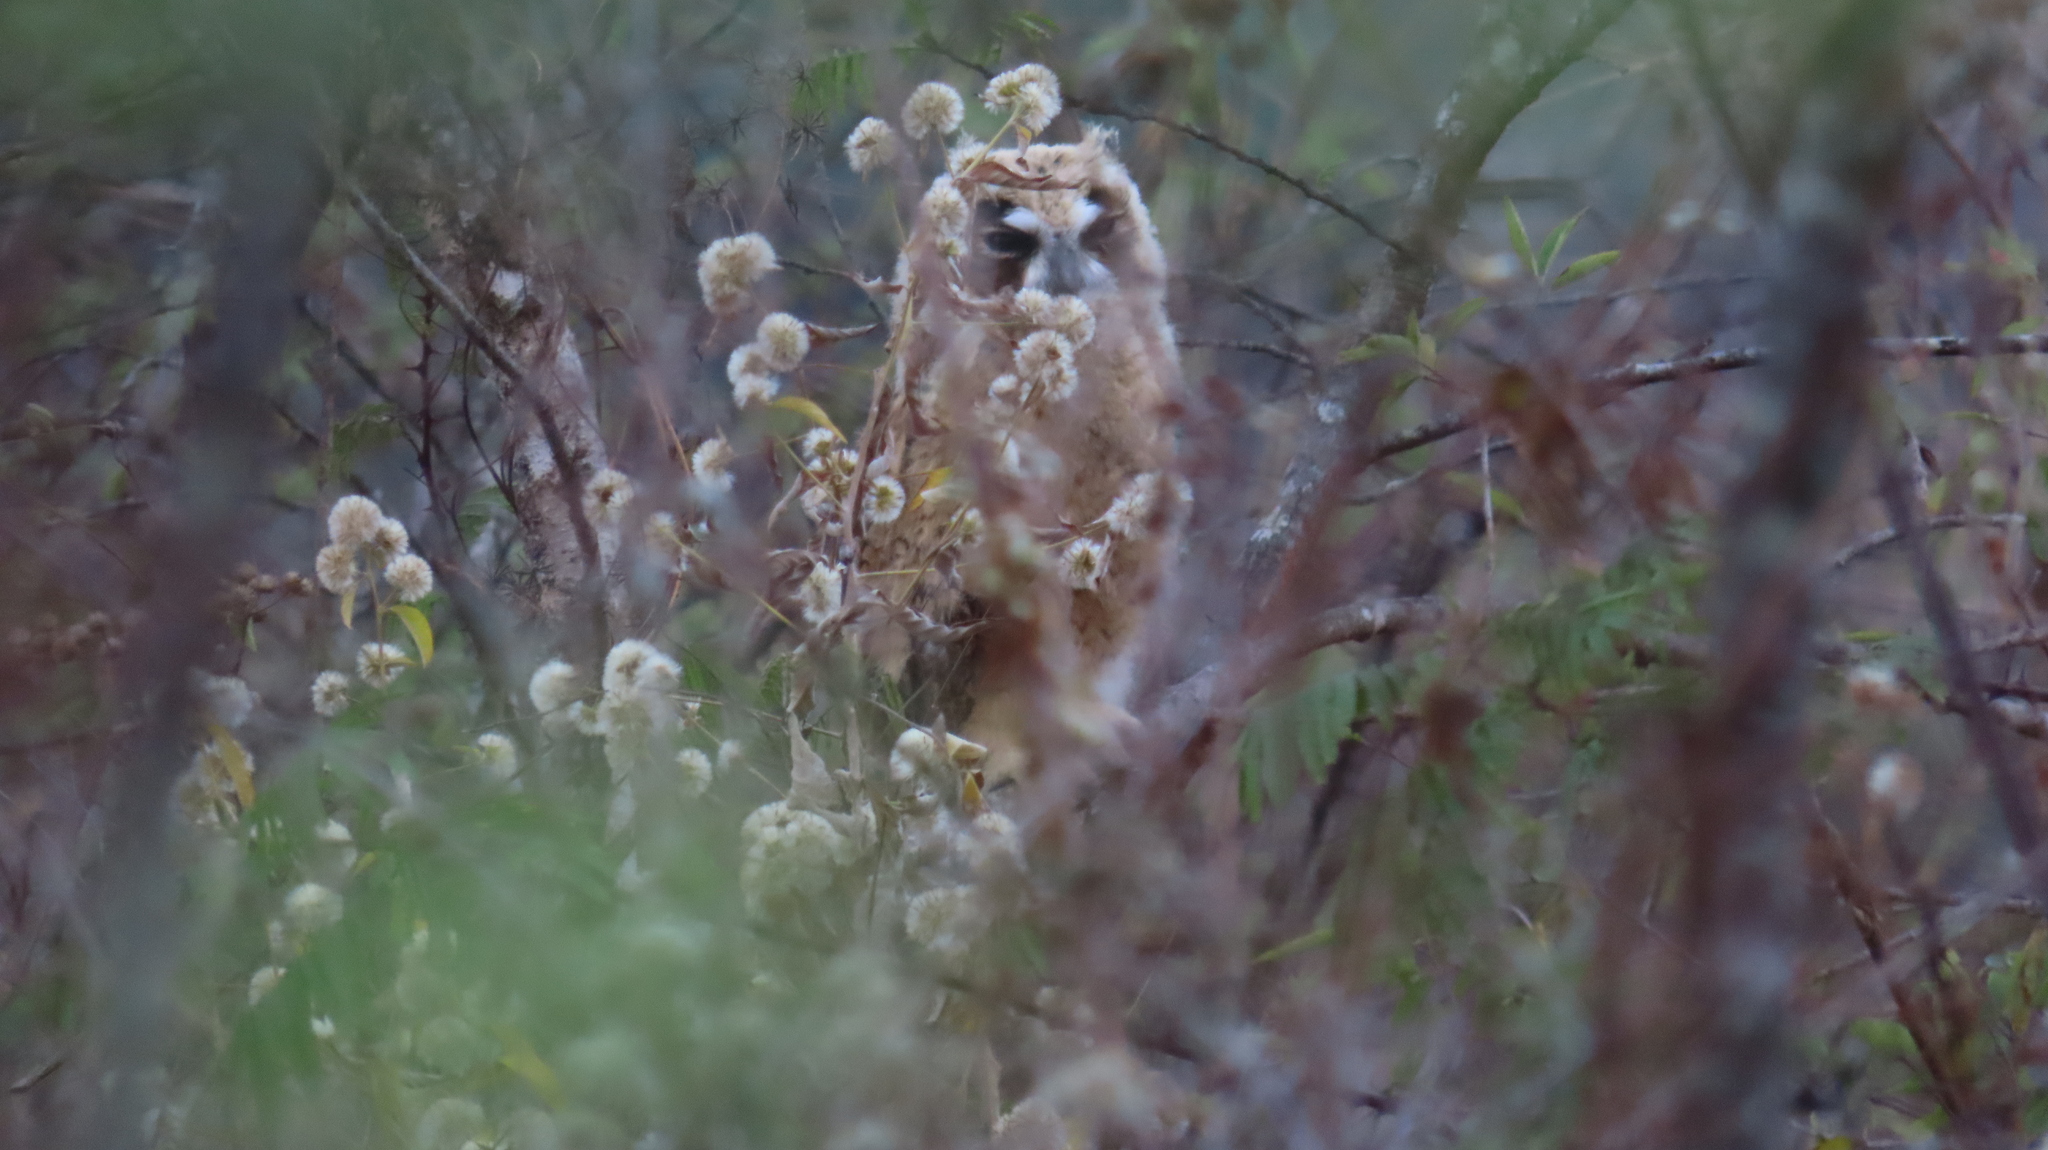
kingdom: Animalia
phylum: Chordata
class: Aves
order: Strigiformes
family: Strigidae
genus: Pseudoscops
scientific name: Pseudoscops clamator
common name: Striped owl
